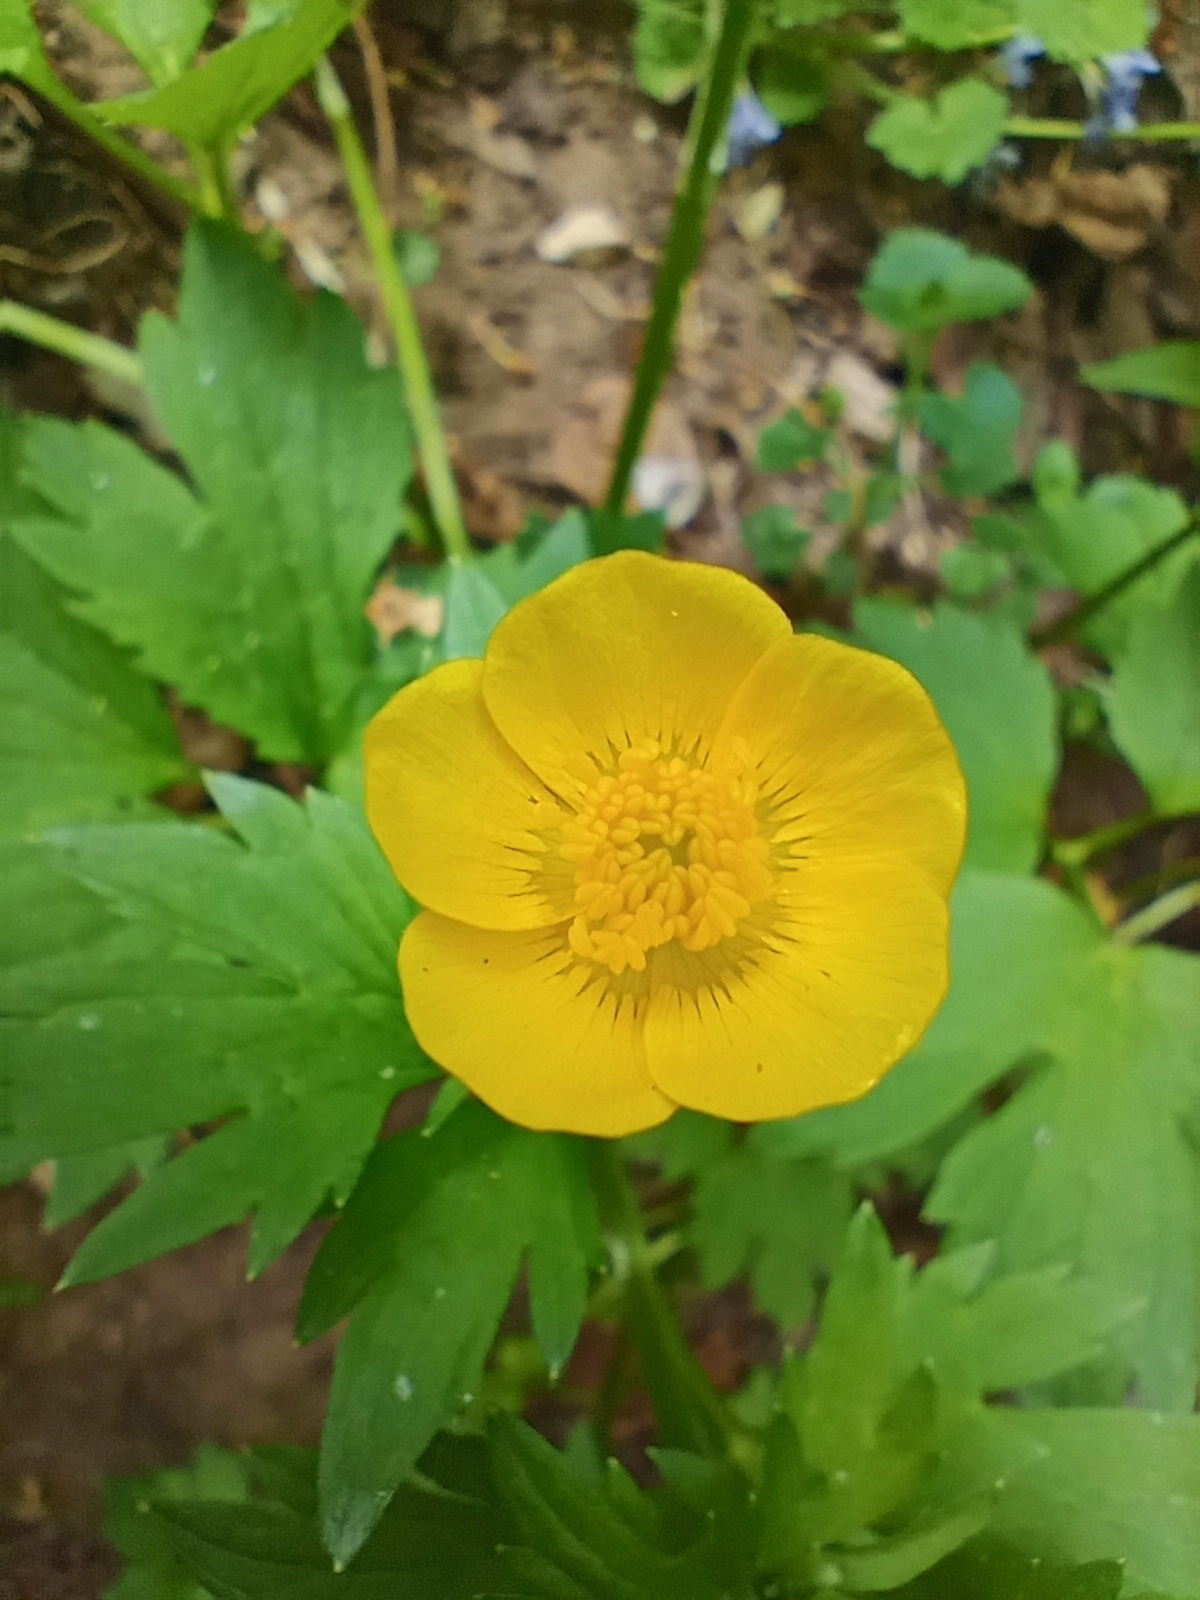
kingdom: Plantae
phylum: Tracheophyta
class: Magnoliopsida
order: Ranunculales
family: Ranunculaceae
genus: Ranunculus
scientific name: Ranunculus repens
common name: Creeping buttercup
